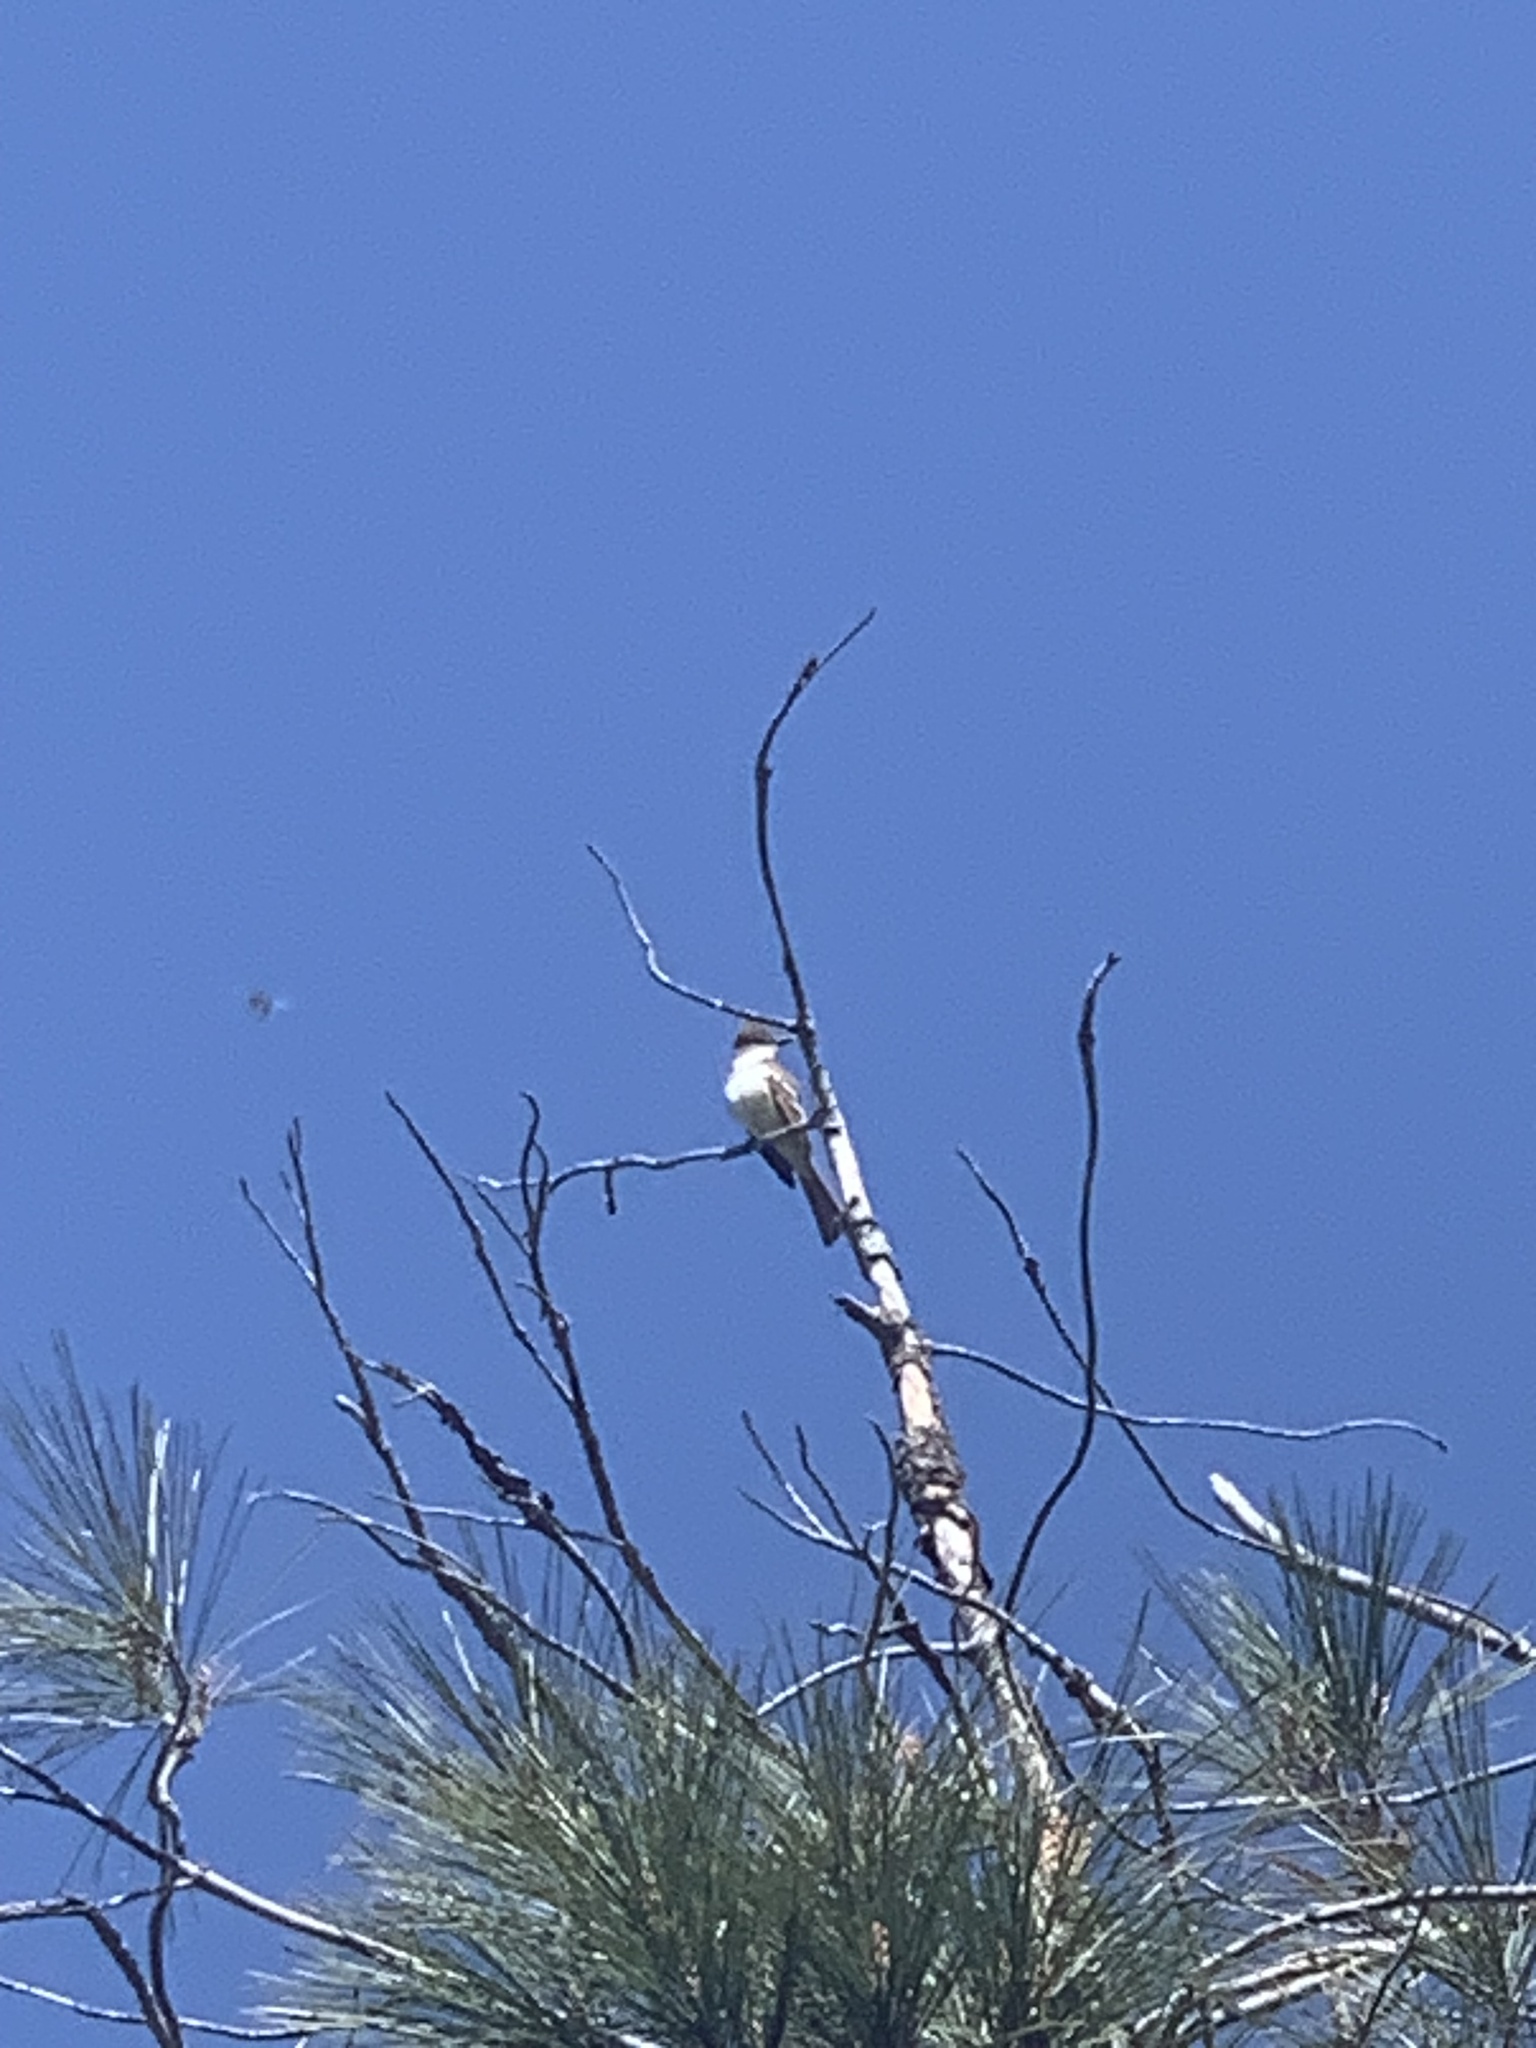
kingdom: Animalia
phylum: Chordata
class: Aves
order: Passeriformes
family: Tyrannidae
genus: Myiarchus
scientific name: Myiarchus cinerascens
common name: Ash-throated flycatcher
